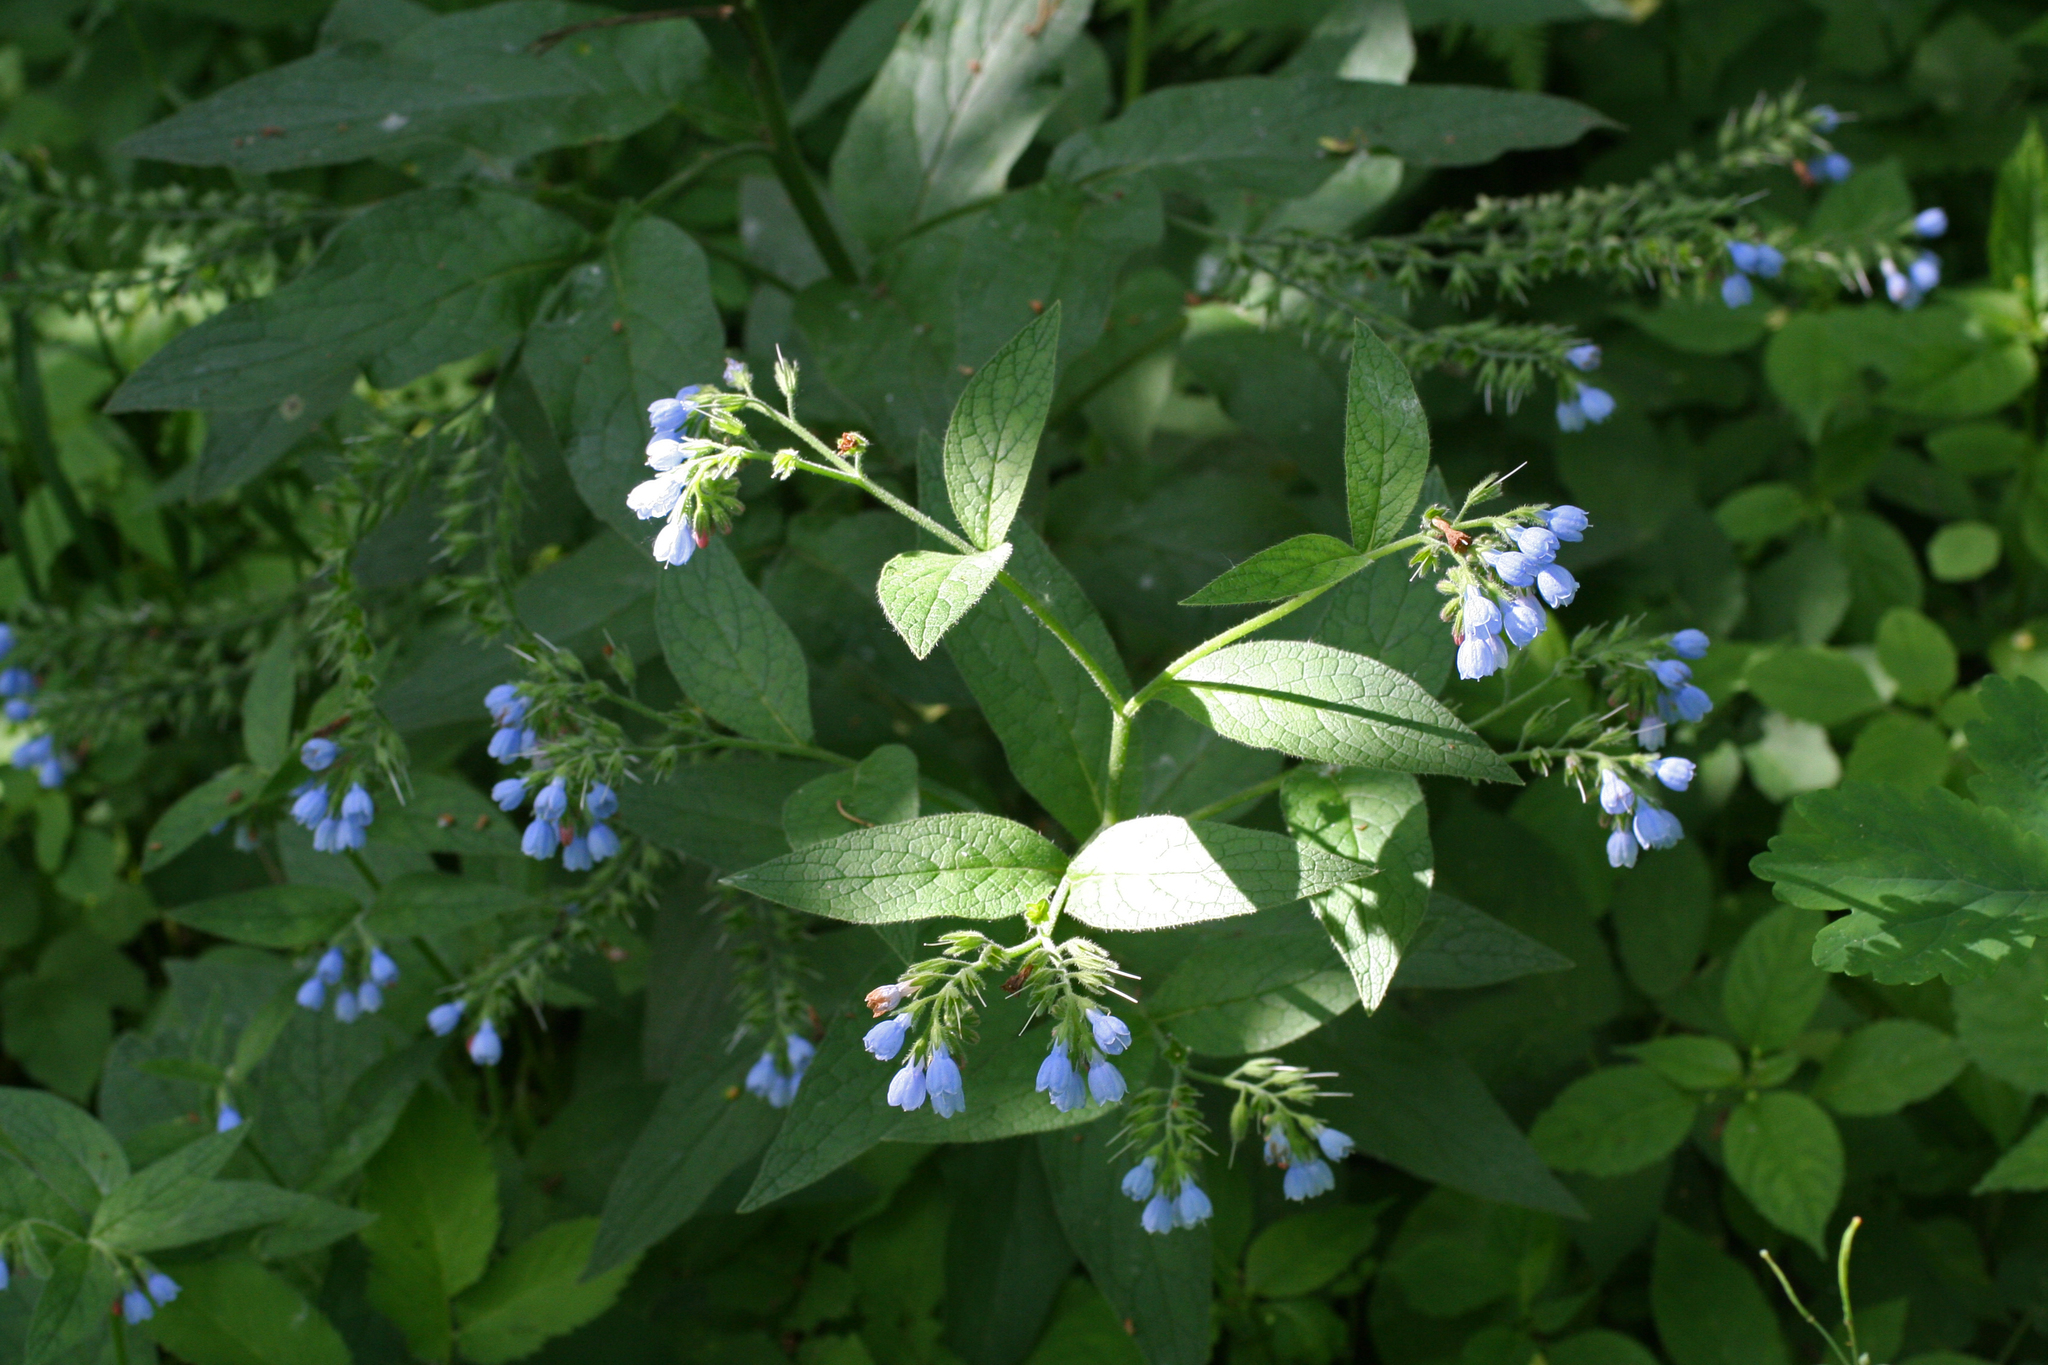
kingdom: Plantae
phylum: Tracheophyta
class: Magnoliopsida
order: Boraginales
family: Boraginaceae
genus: Symphytum
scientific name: Symphytum caucasicum
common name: Caucasian comfrey
